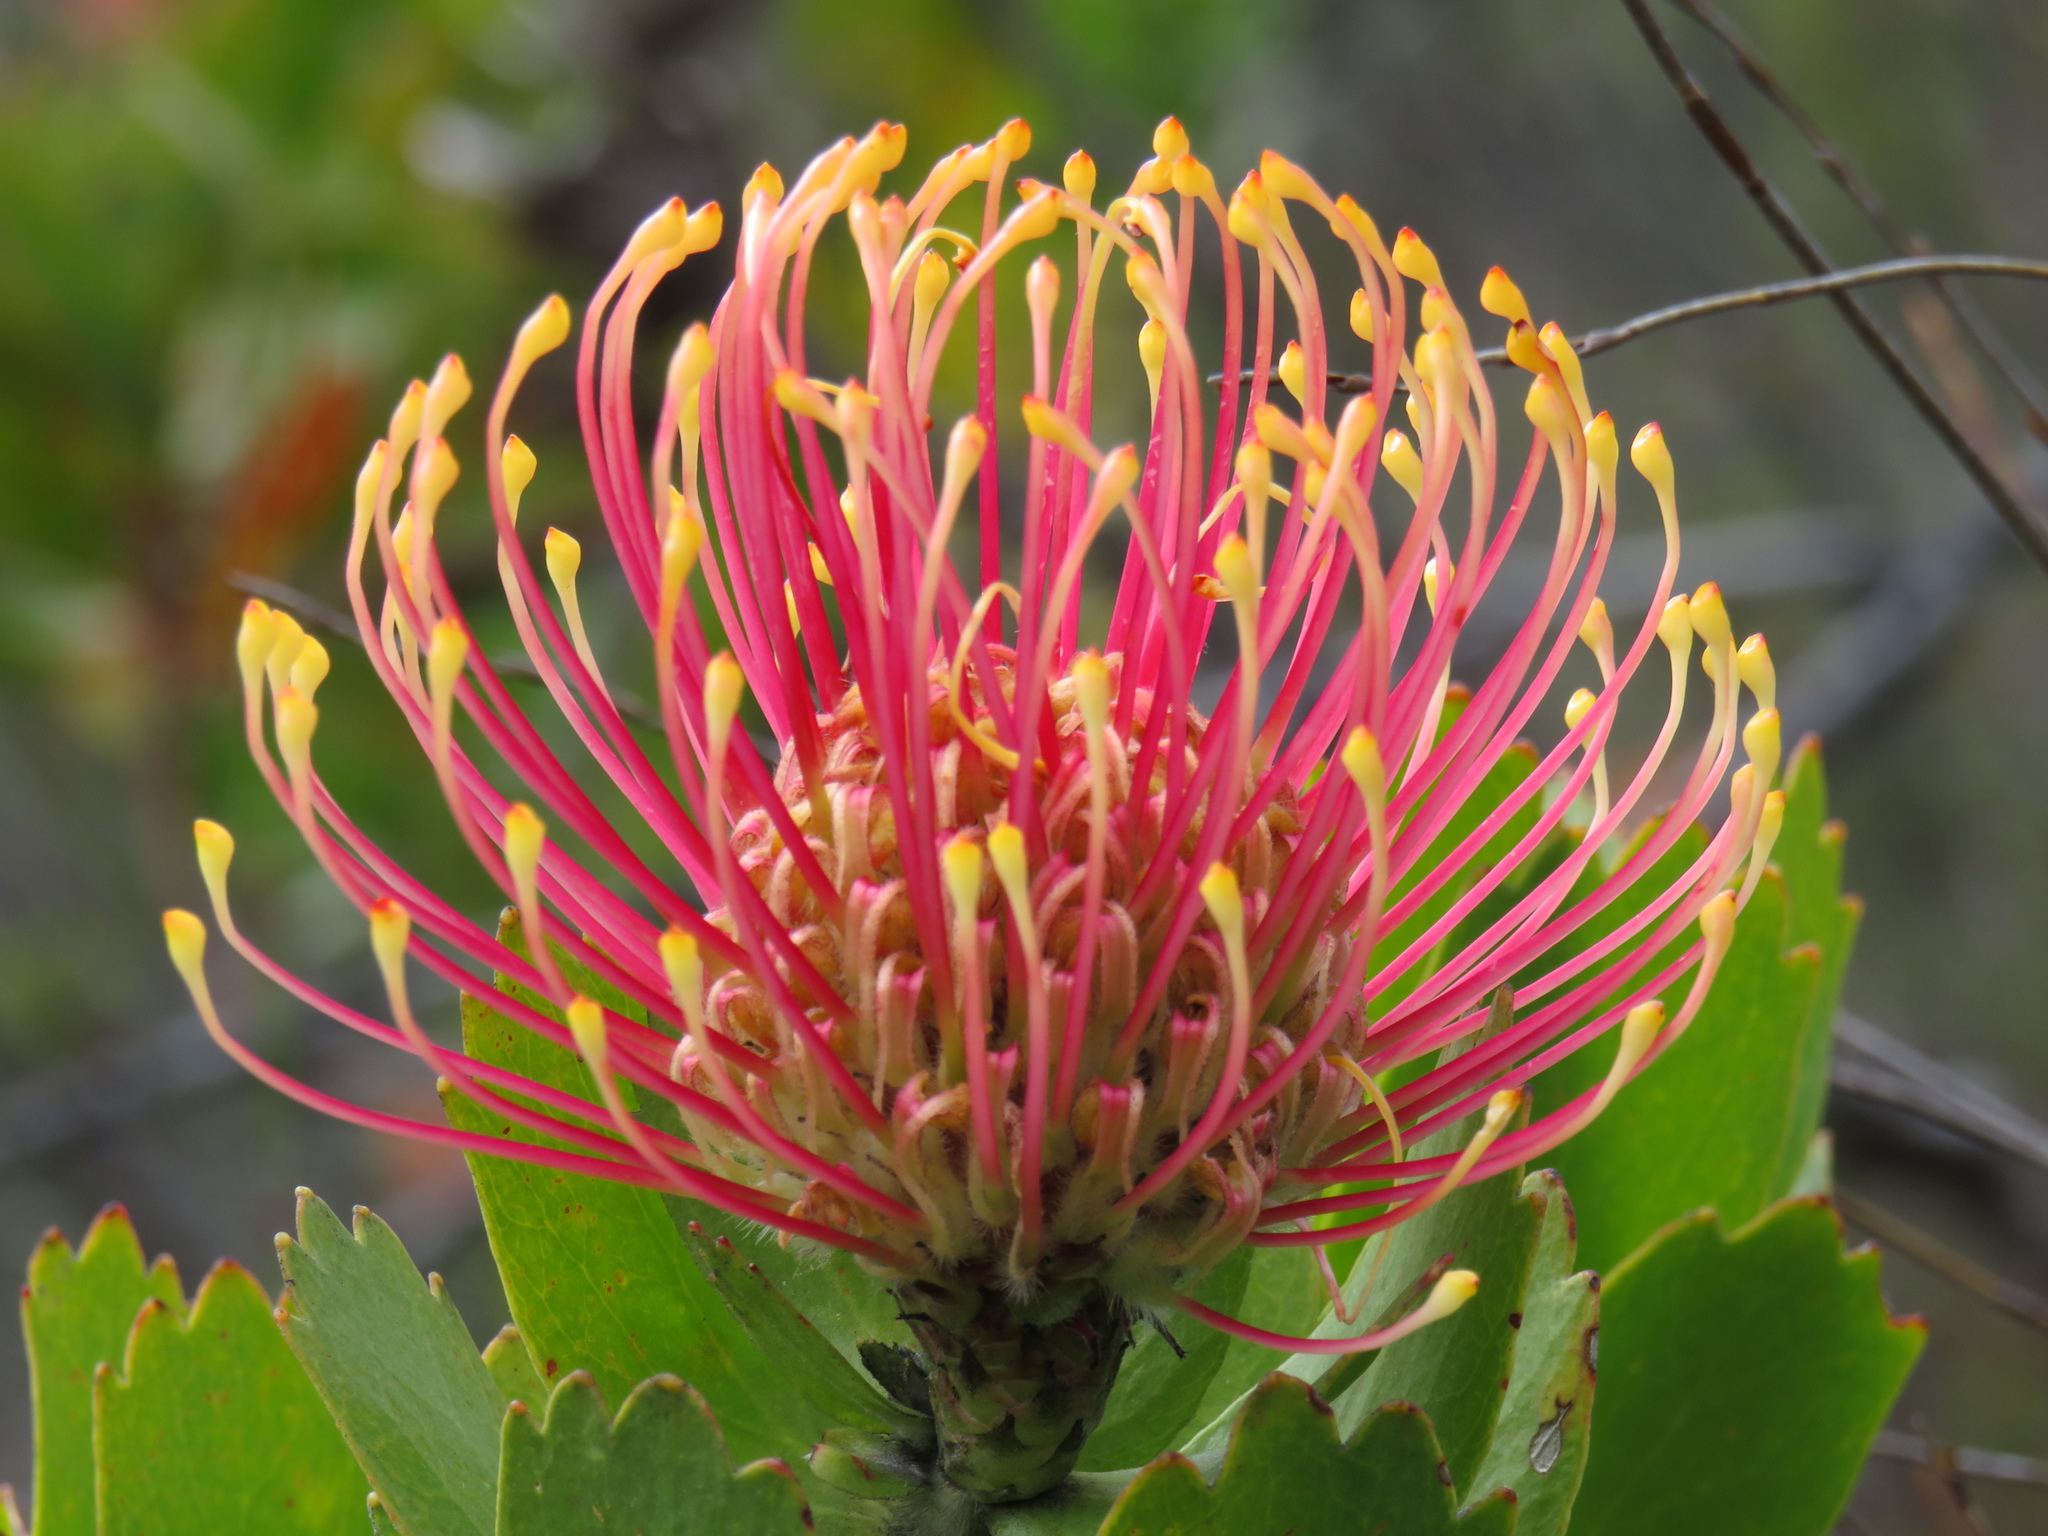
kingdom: Plantae
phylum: Tracheophyta
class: Magnoliopsida
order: Proteales
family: Proteaceae
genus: Leucospermum
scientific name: Leucospermum patersonii
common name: False tree pincushion
